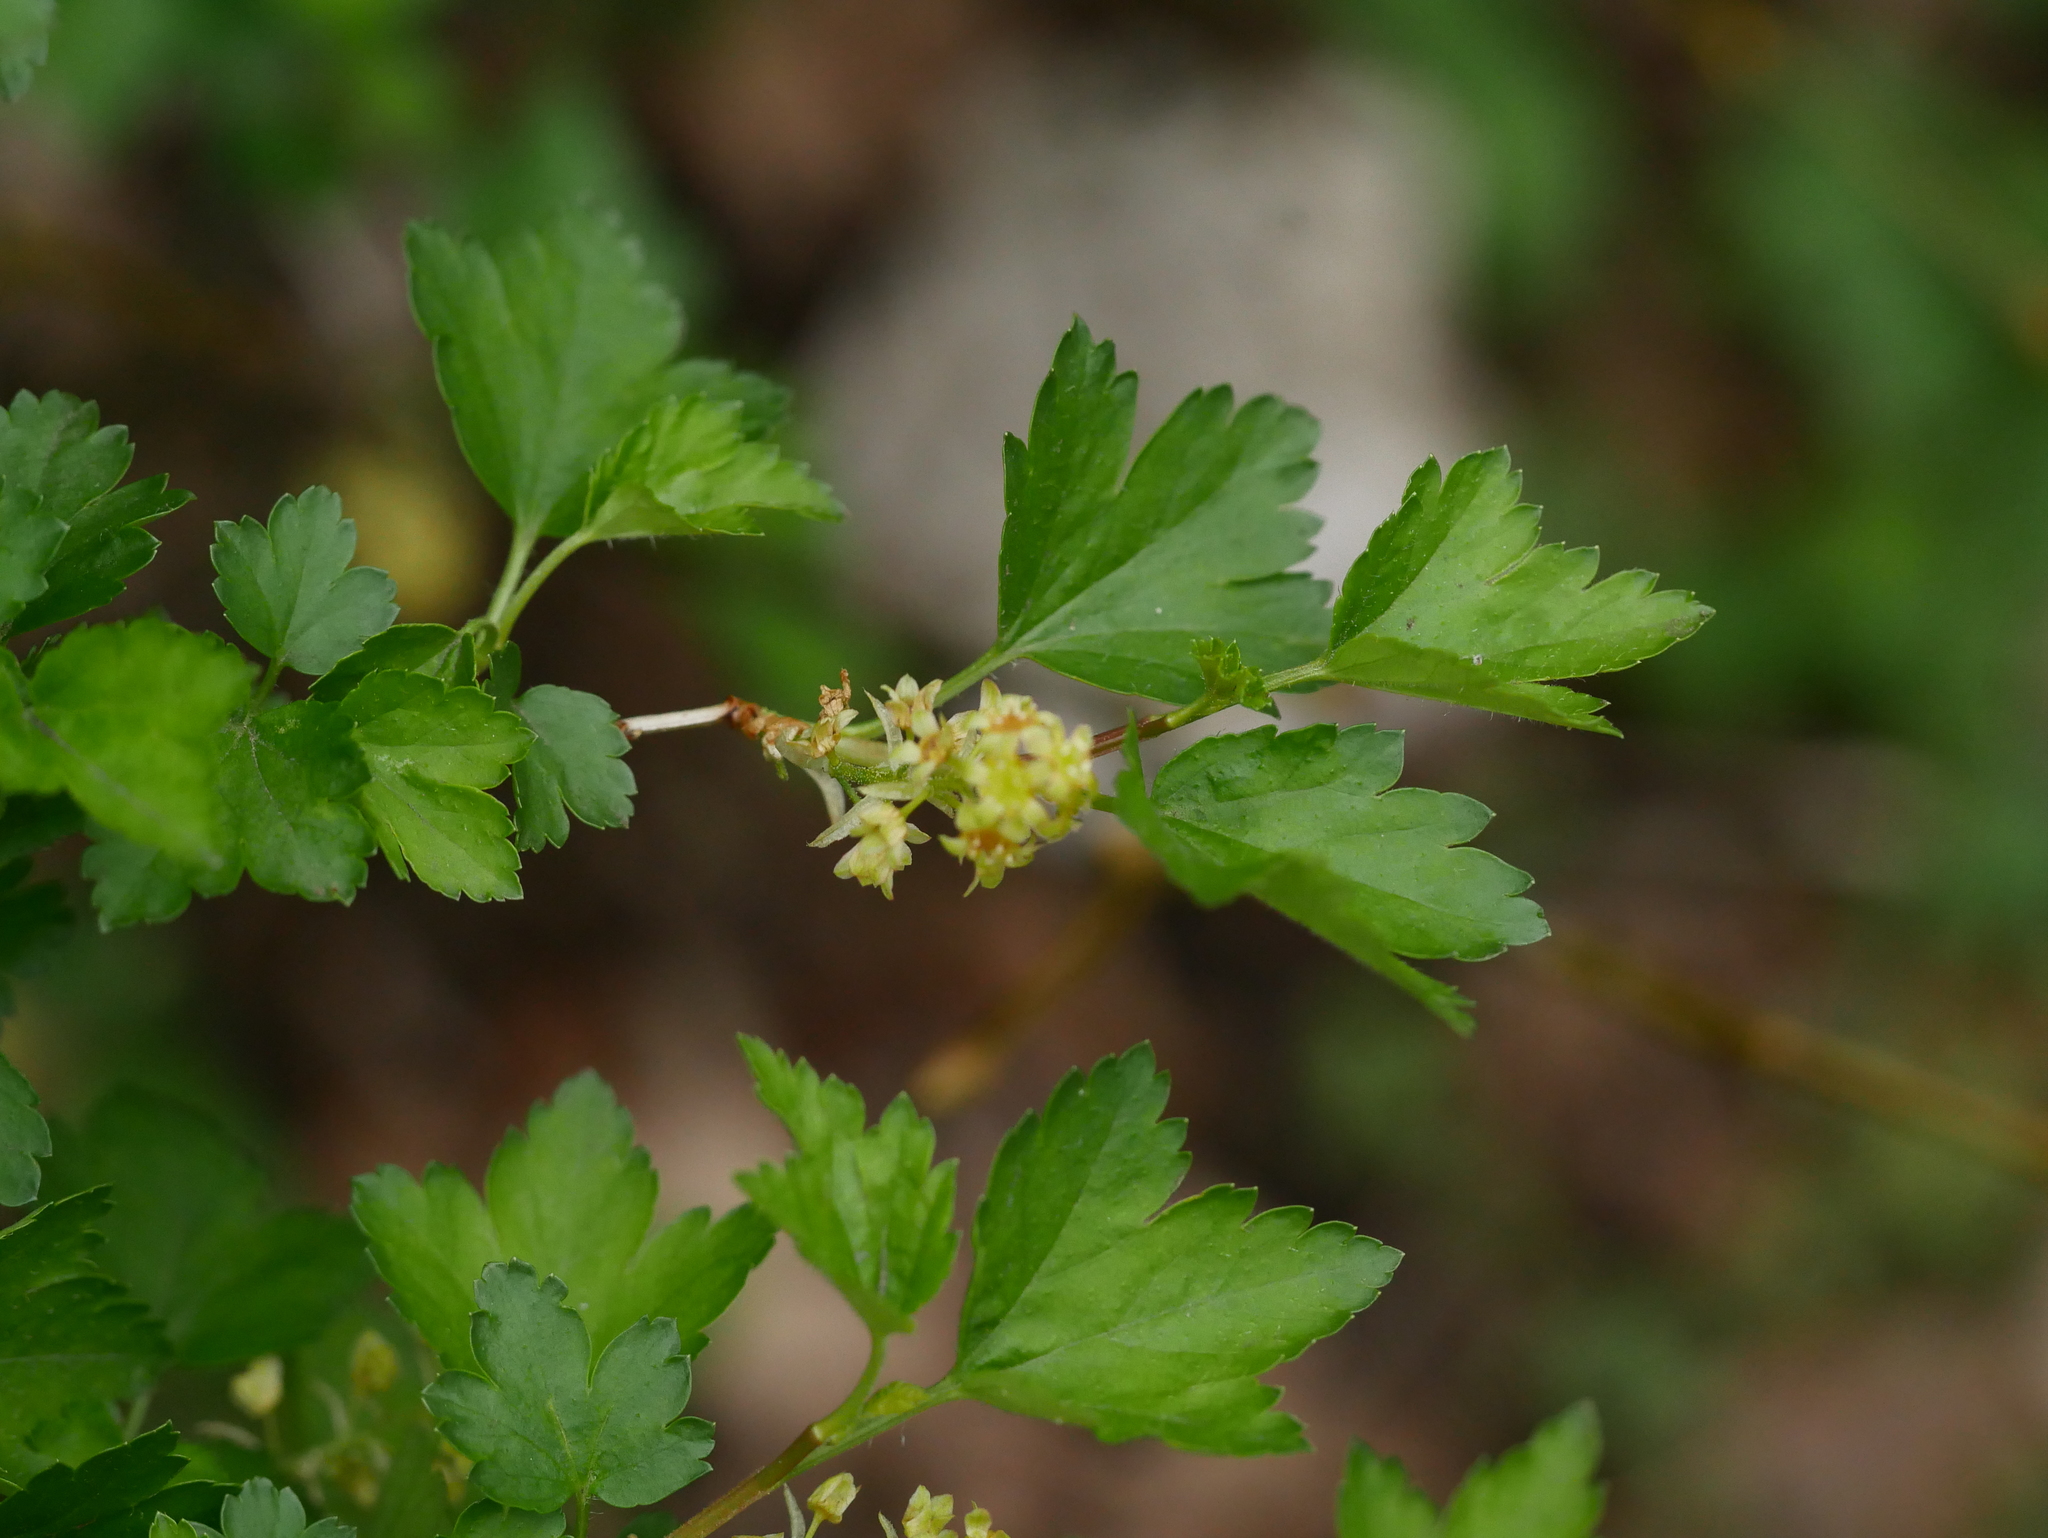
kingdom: Plantae
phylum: Tracheophyta
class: Magnoliopsida
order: Saxifragales
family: Grossulariaceae
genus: Ribes
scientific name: Ribes alpinum
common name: Alpine currant
